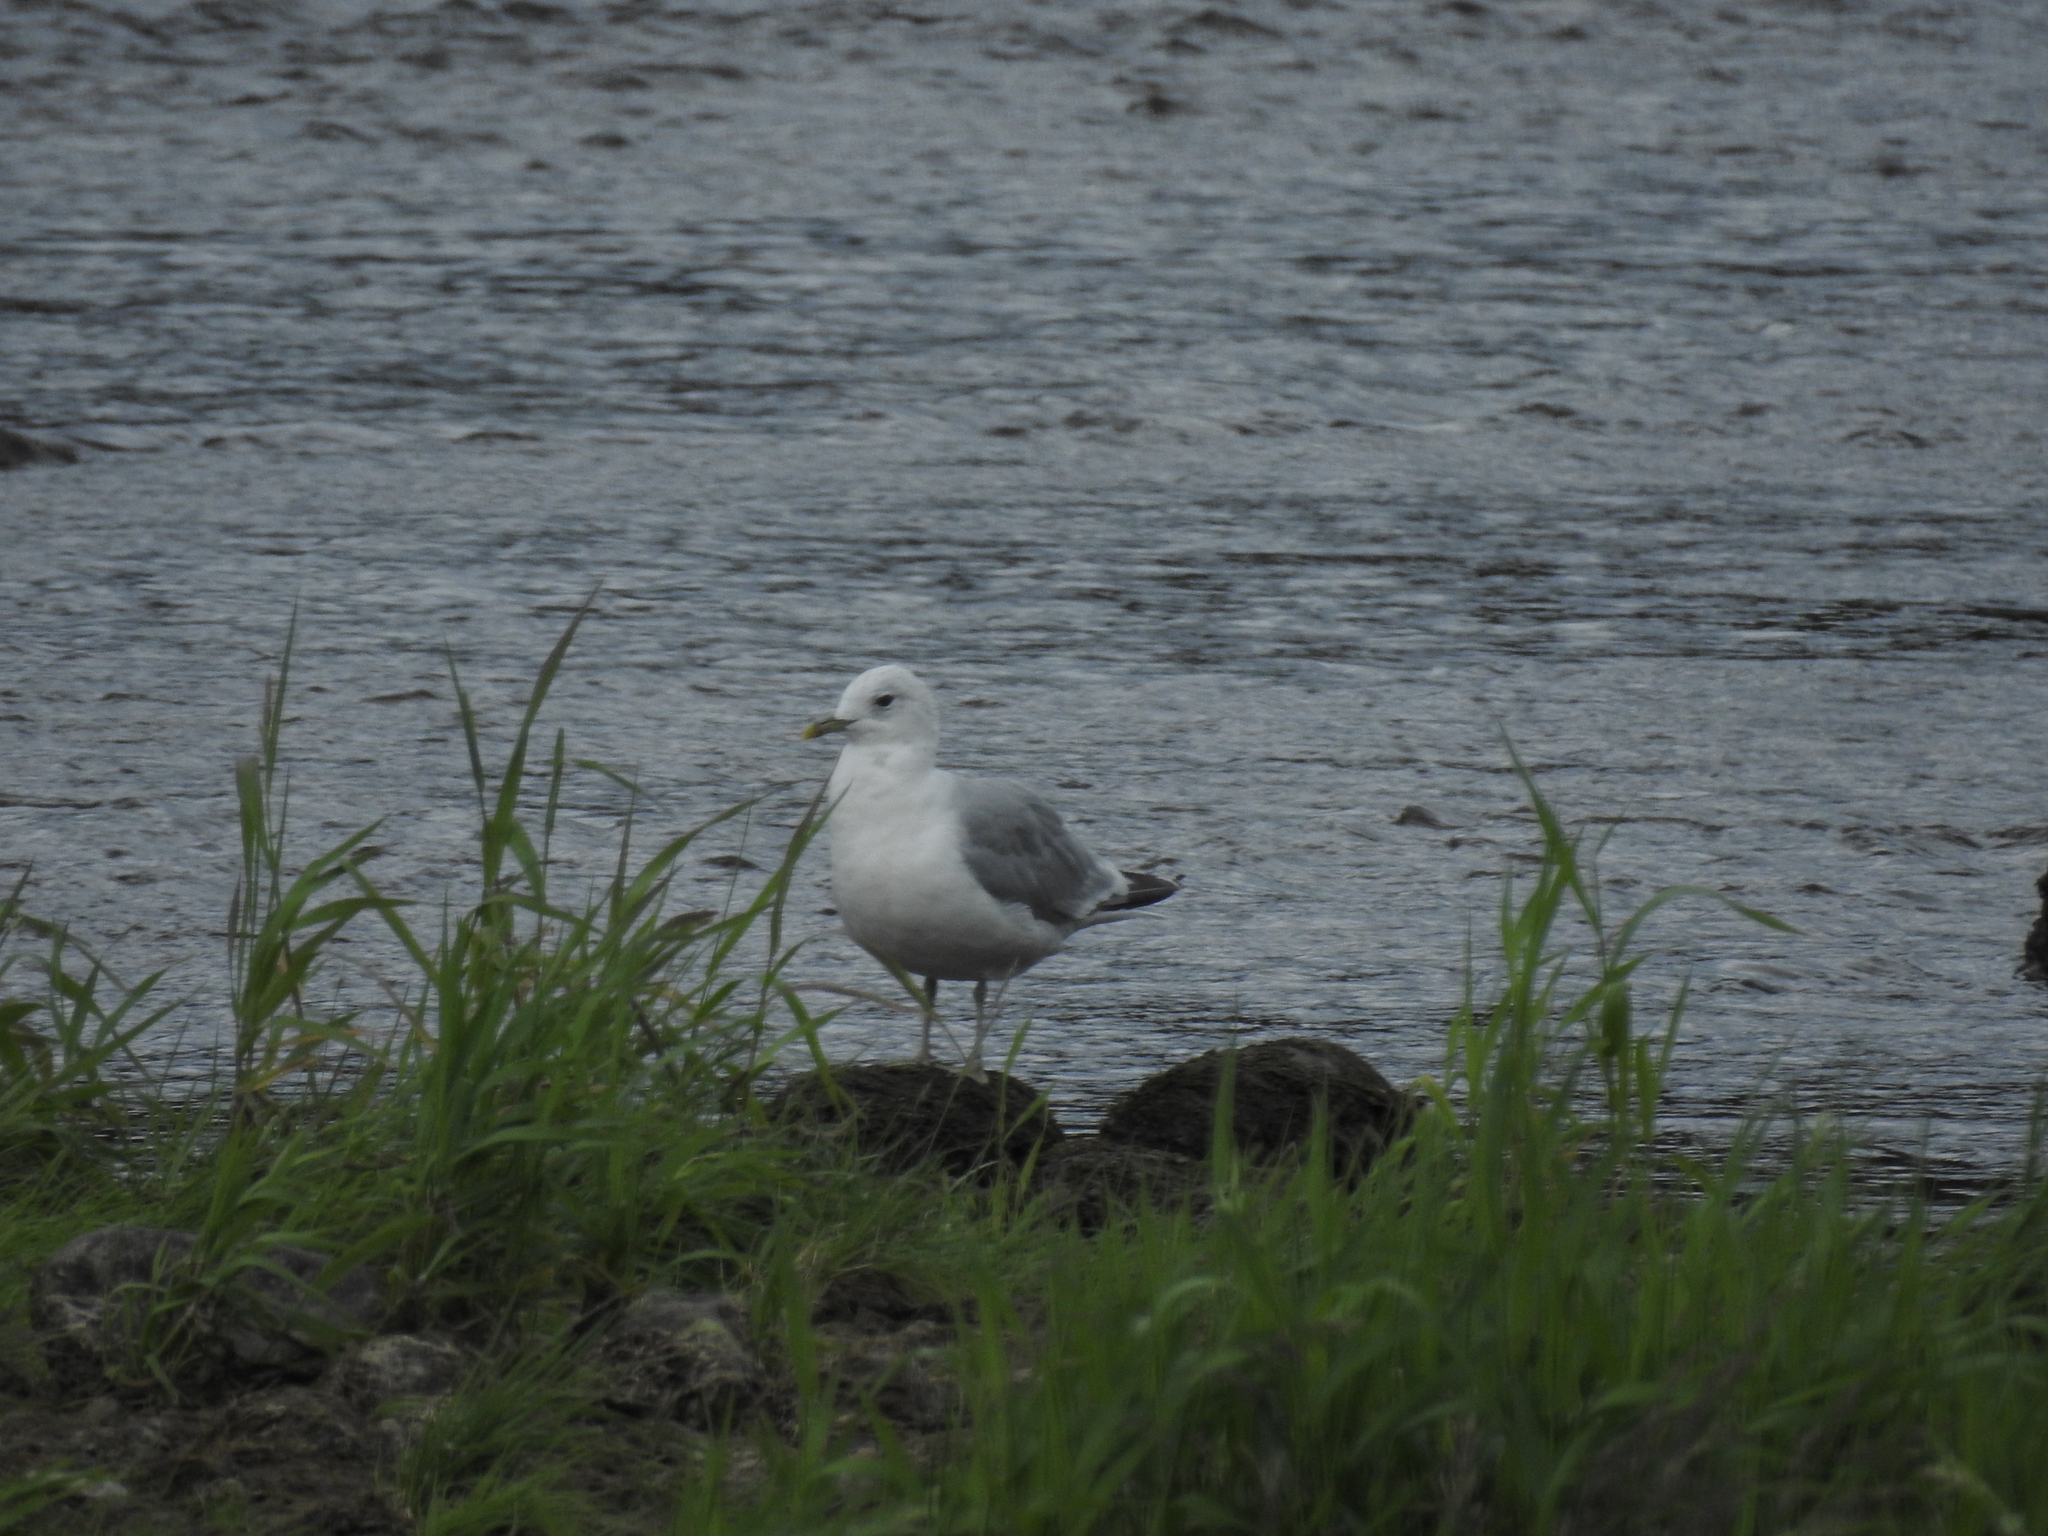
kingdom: Animalia
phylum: Chordata
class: Aves
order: Charadriiformes
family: Laridae
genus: Larus
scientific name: Larus canus
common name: Mew gull
